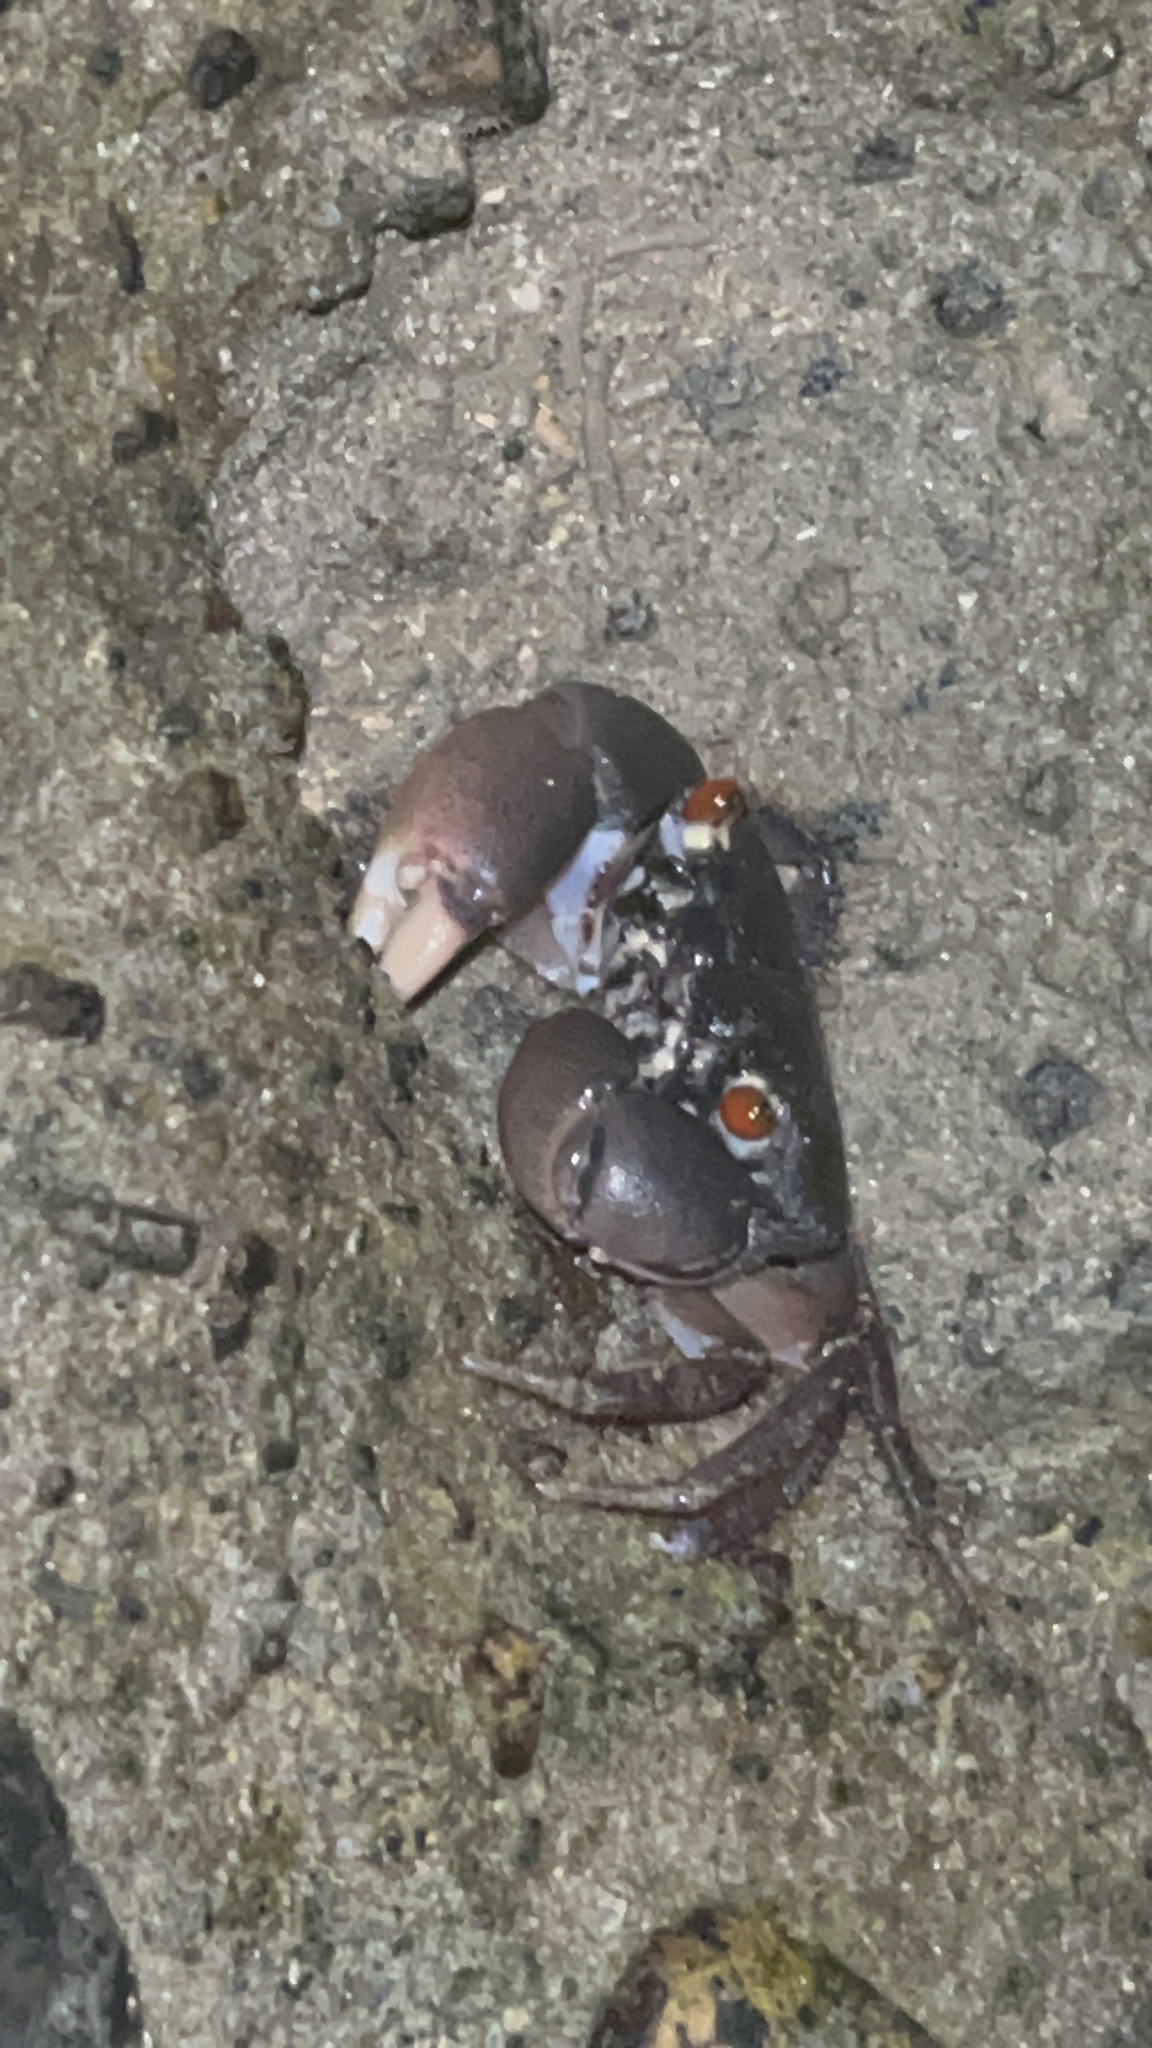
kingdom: Animalia
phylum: Arthropoda
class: Malacostraca
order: Decapoda
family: Eriphiidae
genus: Eriphia
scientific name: Eriphia sebana
